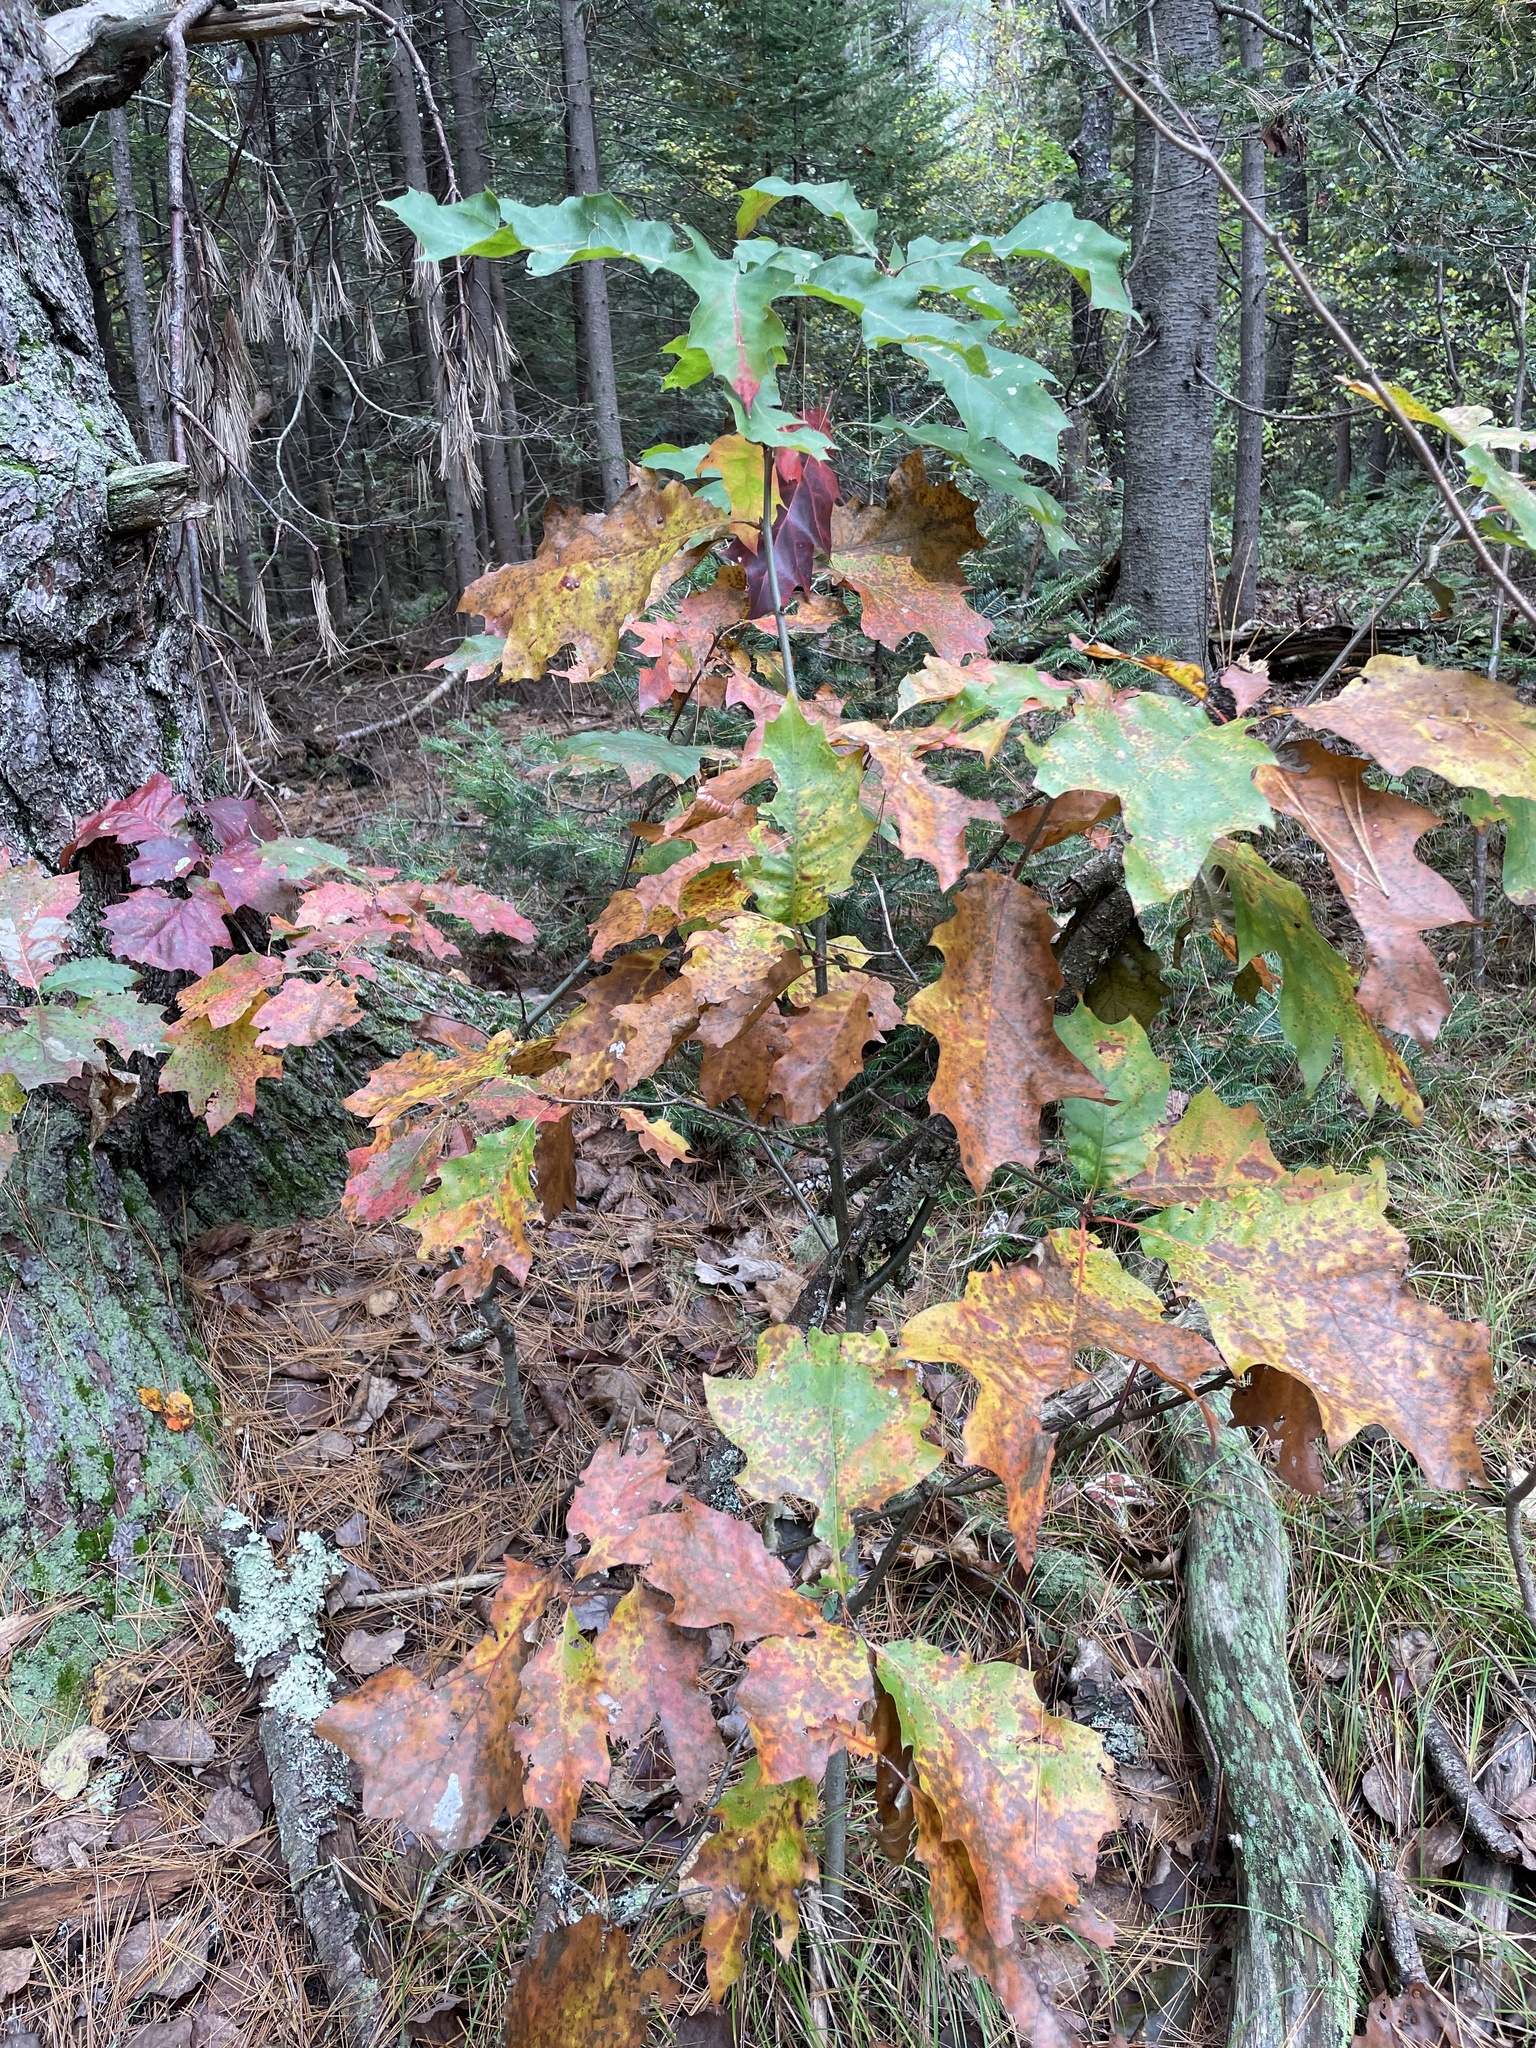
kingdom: Plantae
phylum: Tracheophyta
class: Magnoliopsida
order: Fagales
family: Fagaceae
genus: Quercus
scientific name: Quercus rubra
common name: Red oak
